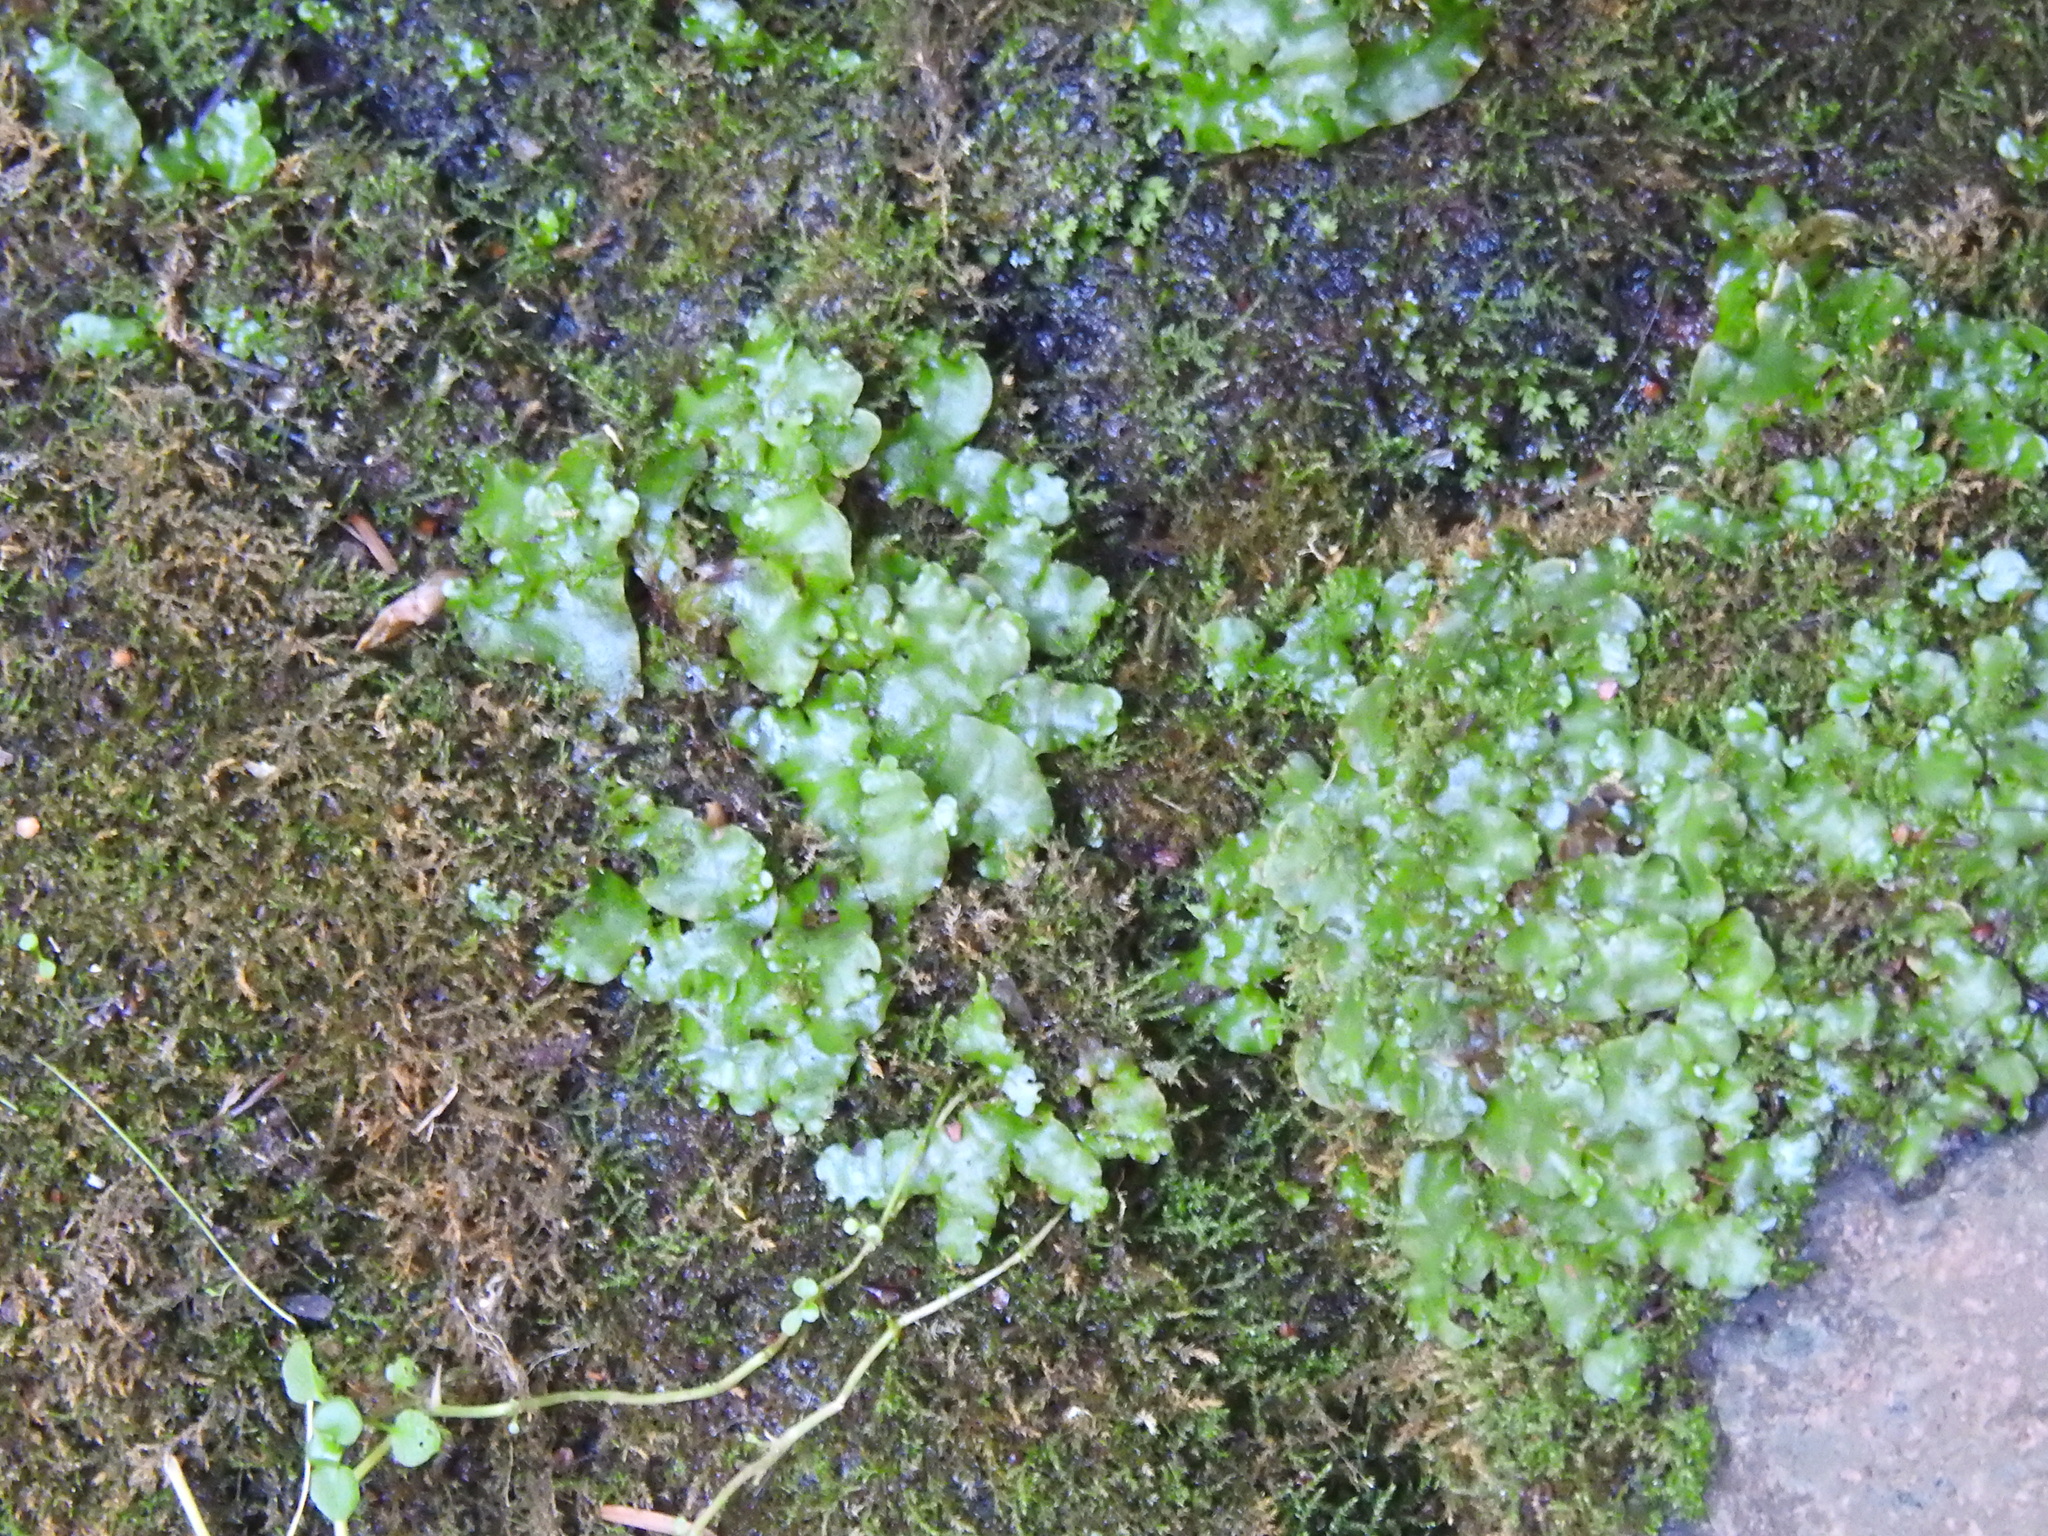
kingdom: Plantae
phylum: Marchantiophyta
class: Marchantiopsida
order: Lunulariales
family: Lunulariaceae
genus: Lunularia
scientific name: Lunularia cruciata
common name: Crescent-cup liverwort
